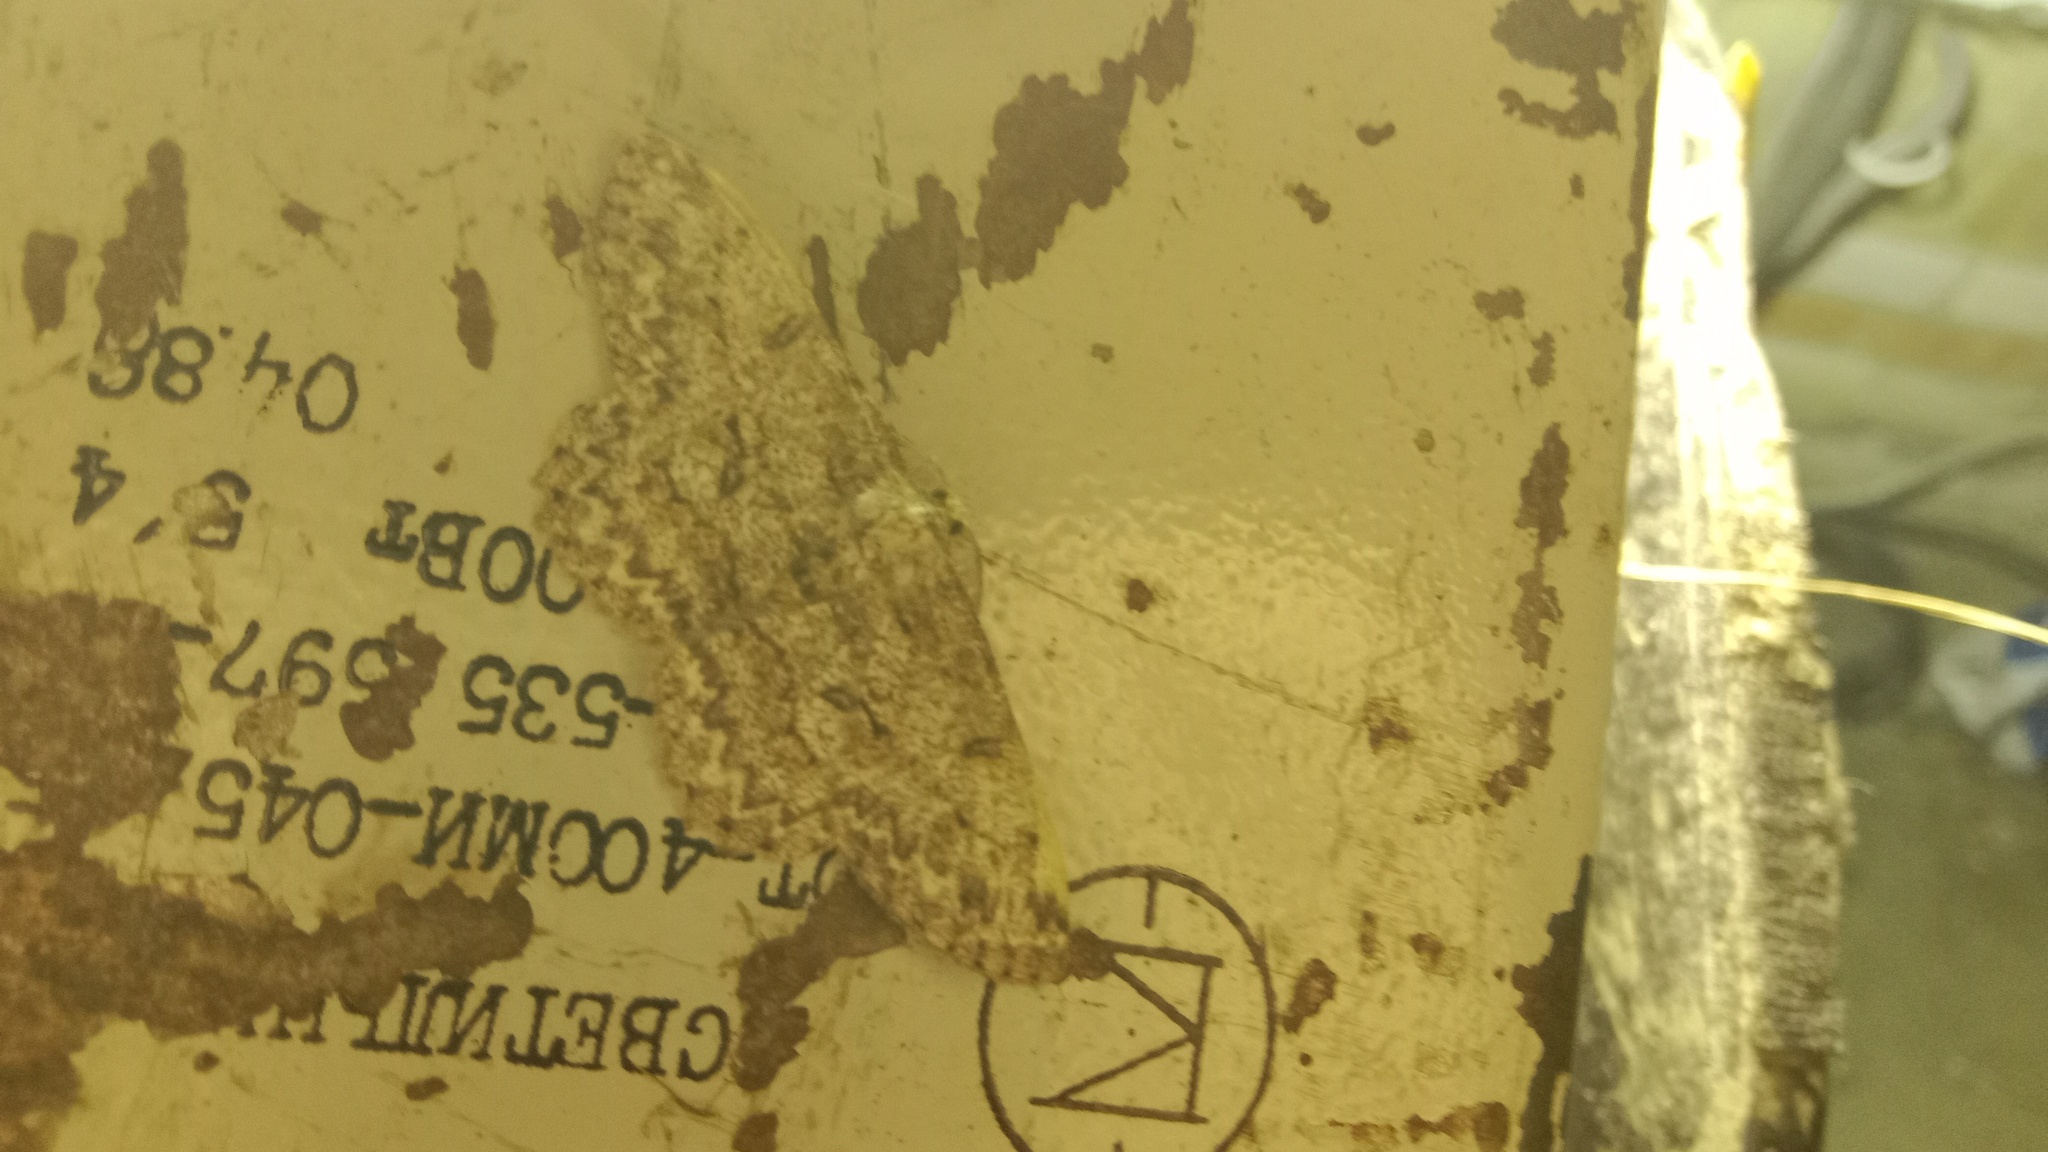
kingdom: Animalia
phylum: Arthropoda
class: Insecta
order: Lepidoptera
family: Geometridae
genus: Hypomecis
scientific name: Hypomecis punctinalis
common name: Pale oak beauty
